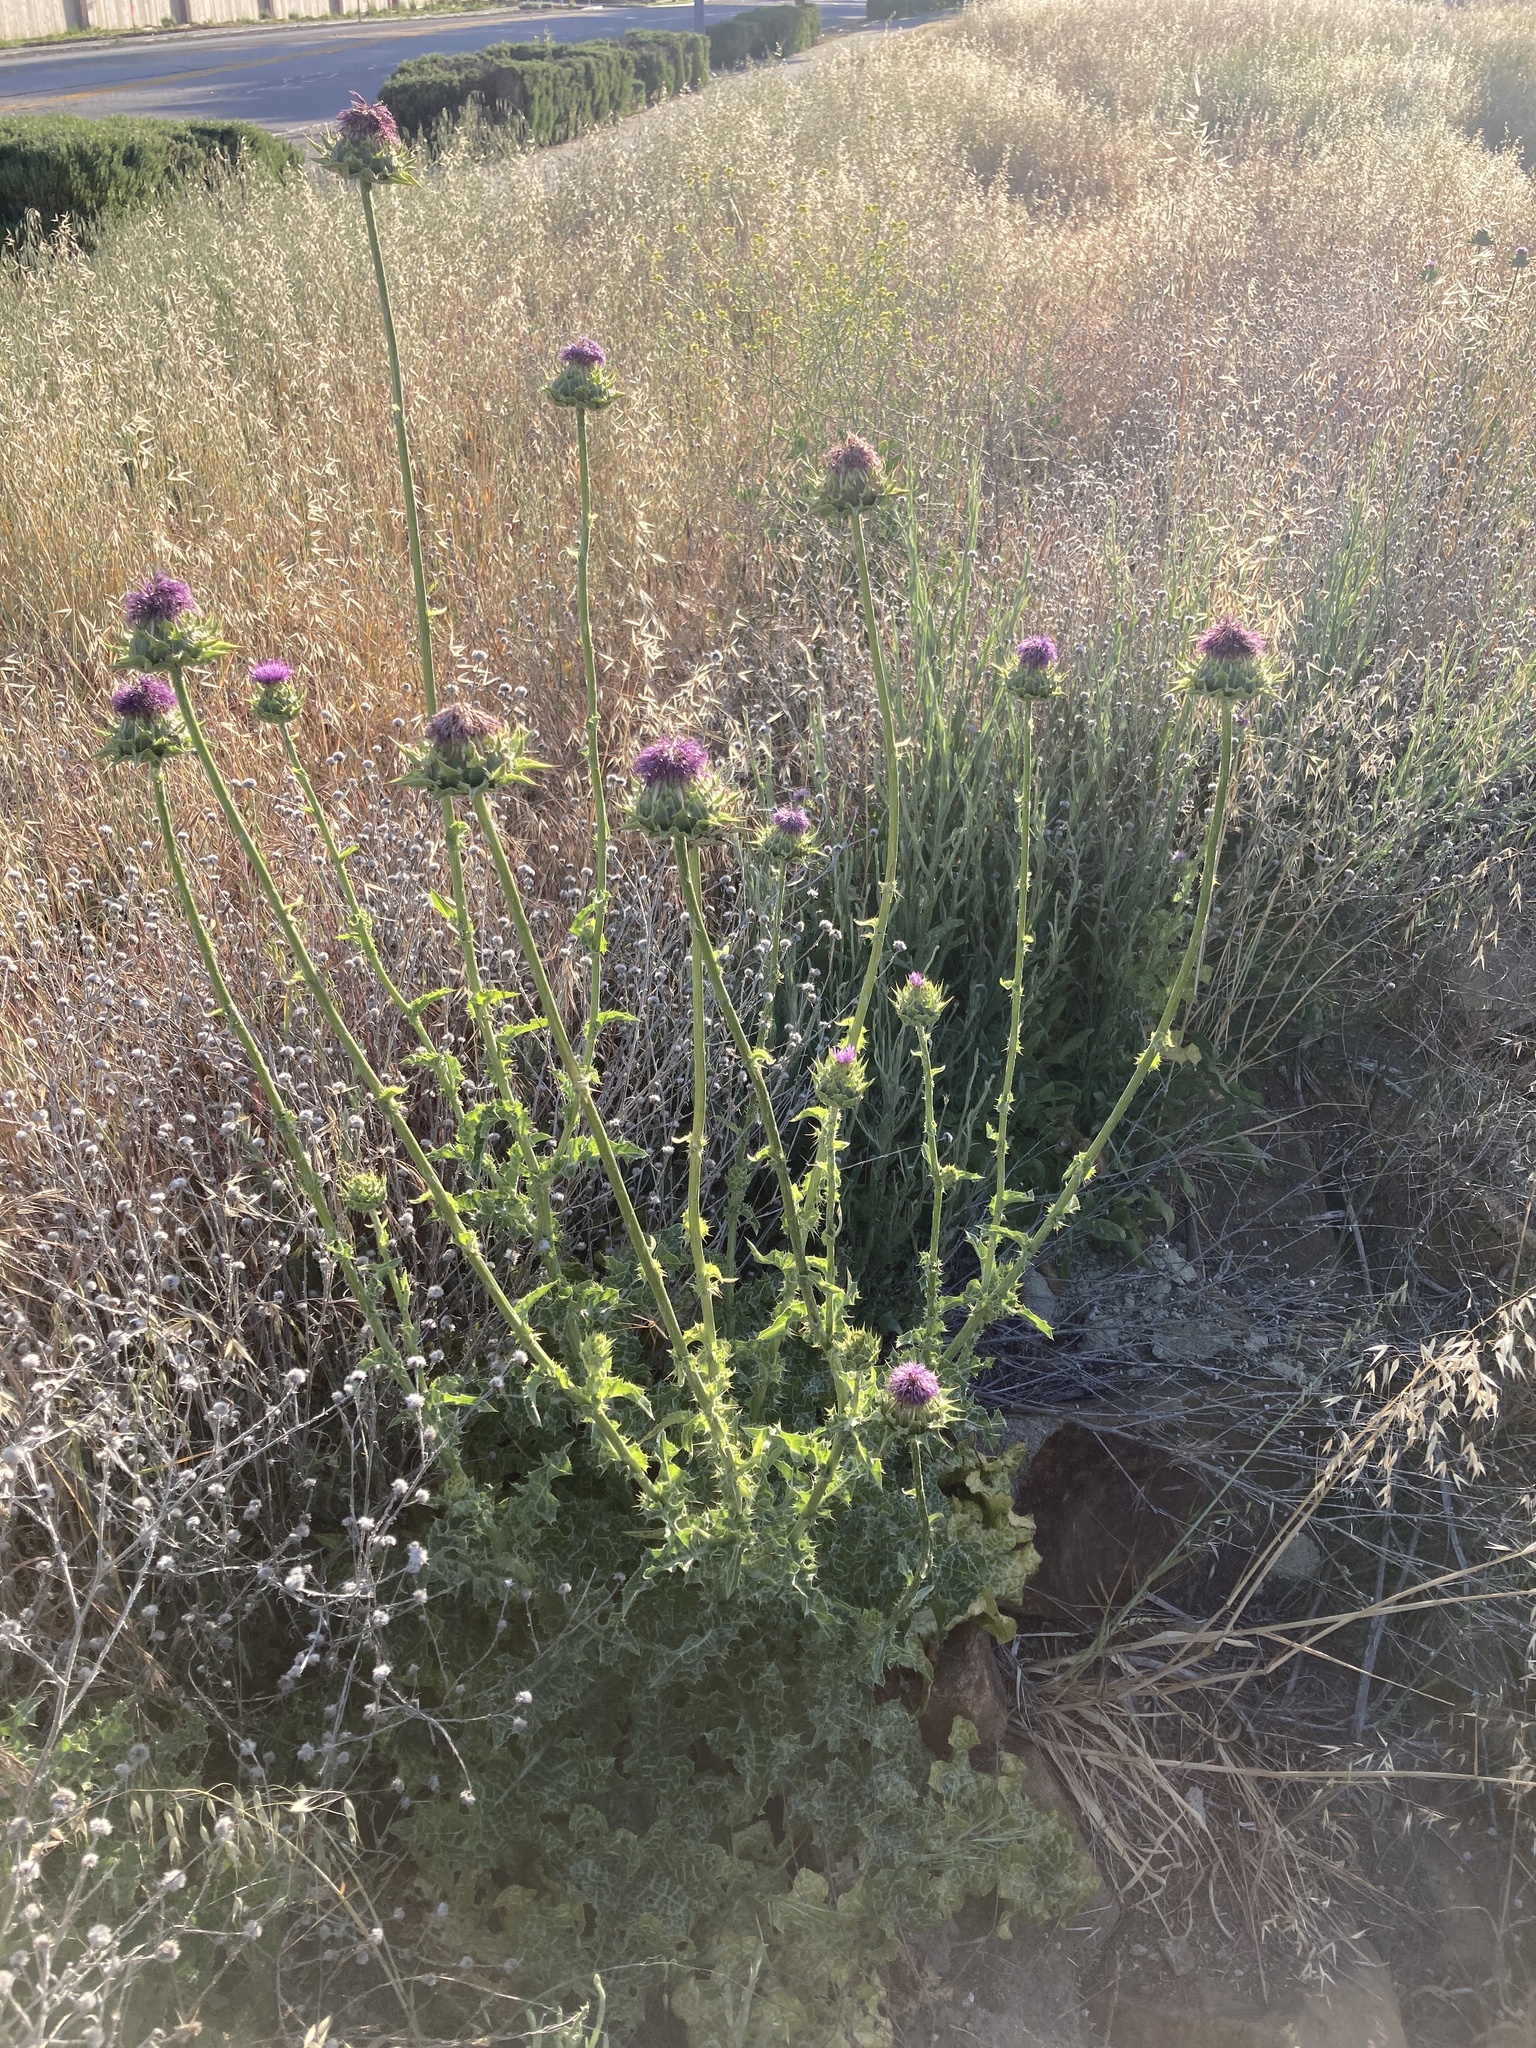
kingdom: Plantae
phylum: Tracheophyta
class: Magnoliopsida
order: Asterales
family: Asteraceae
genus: Silybum
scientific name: Silybum marianum
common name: Milk thistle
